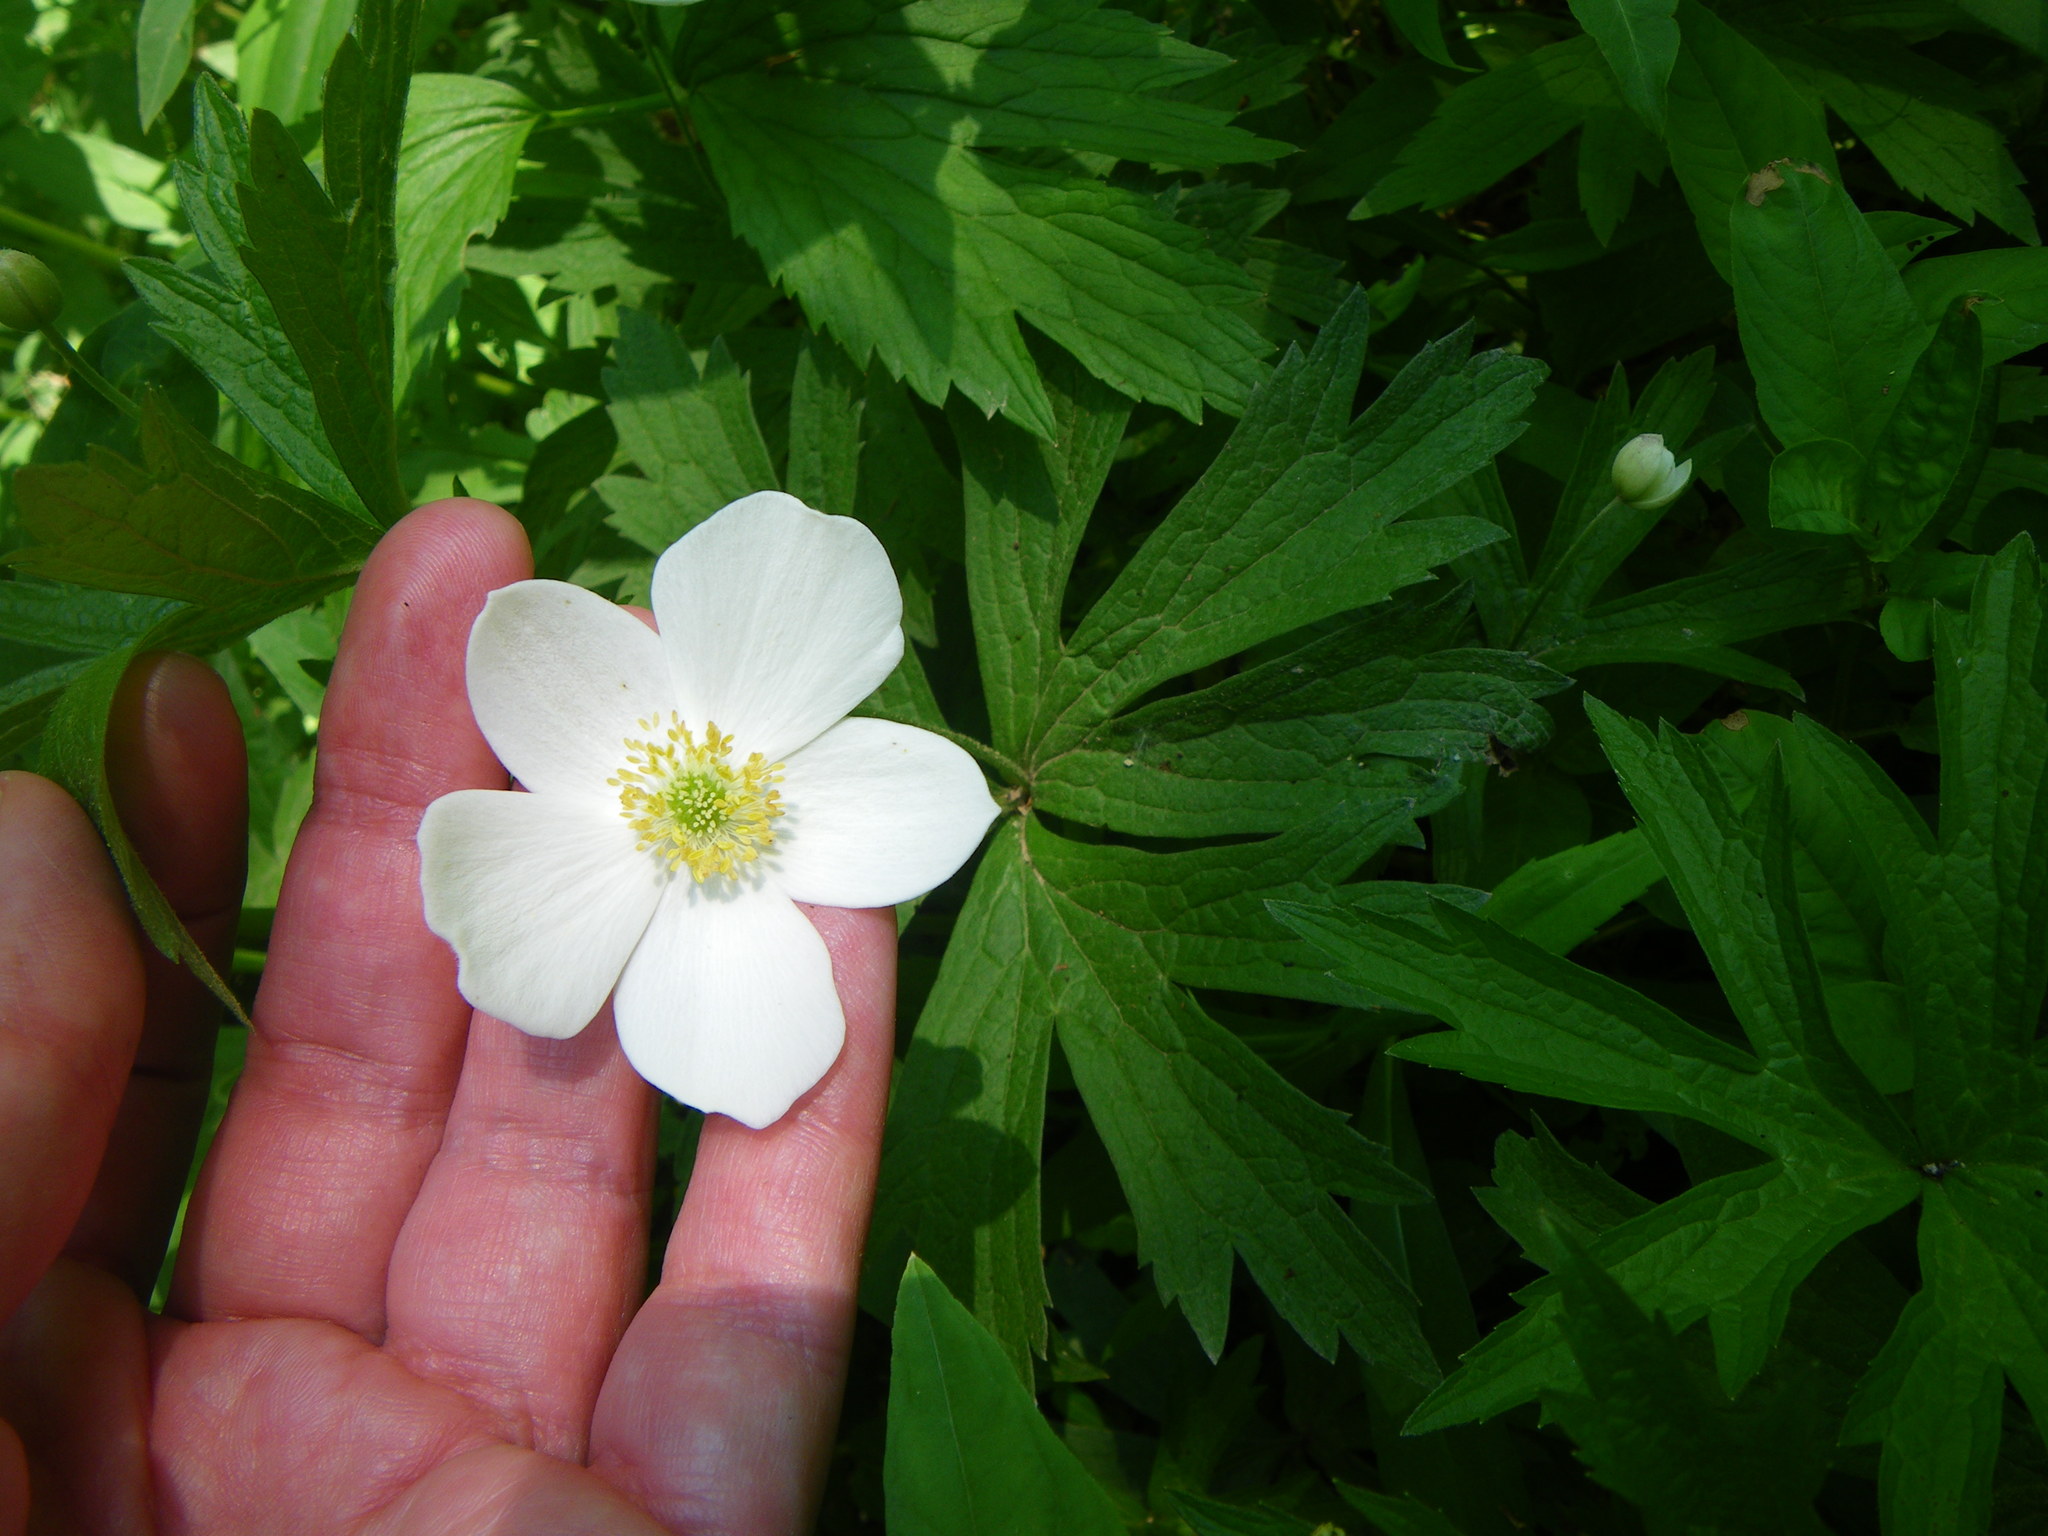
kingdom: Plantae
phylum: Tracheophyta
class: Magnoliopsida
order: Ranunculales
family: Ranunculaceae
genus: Anemonastrum
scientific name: Anemonastrum canadense
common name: Canada anemone
